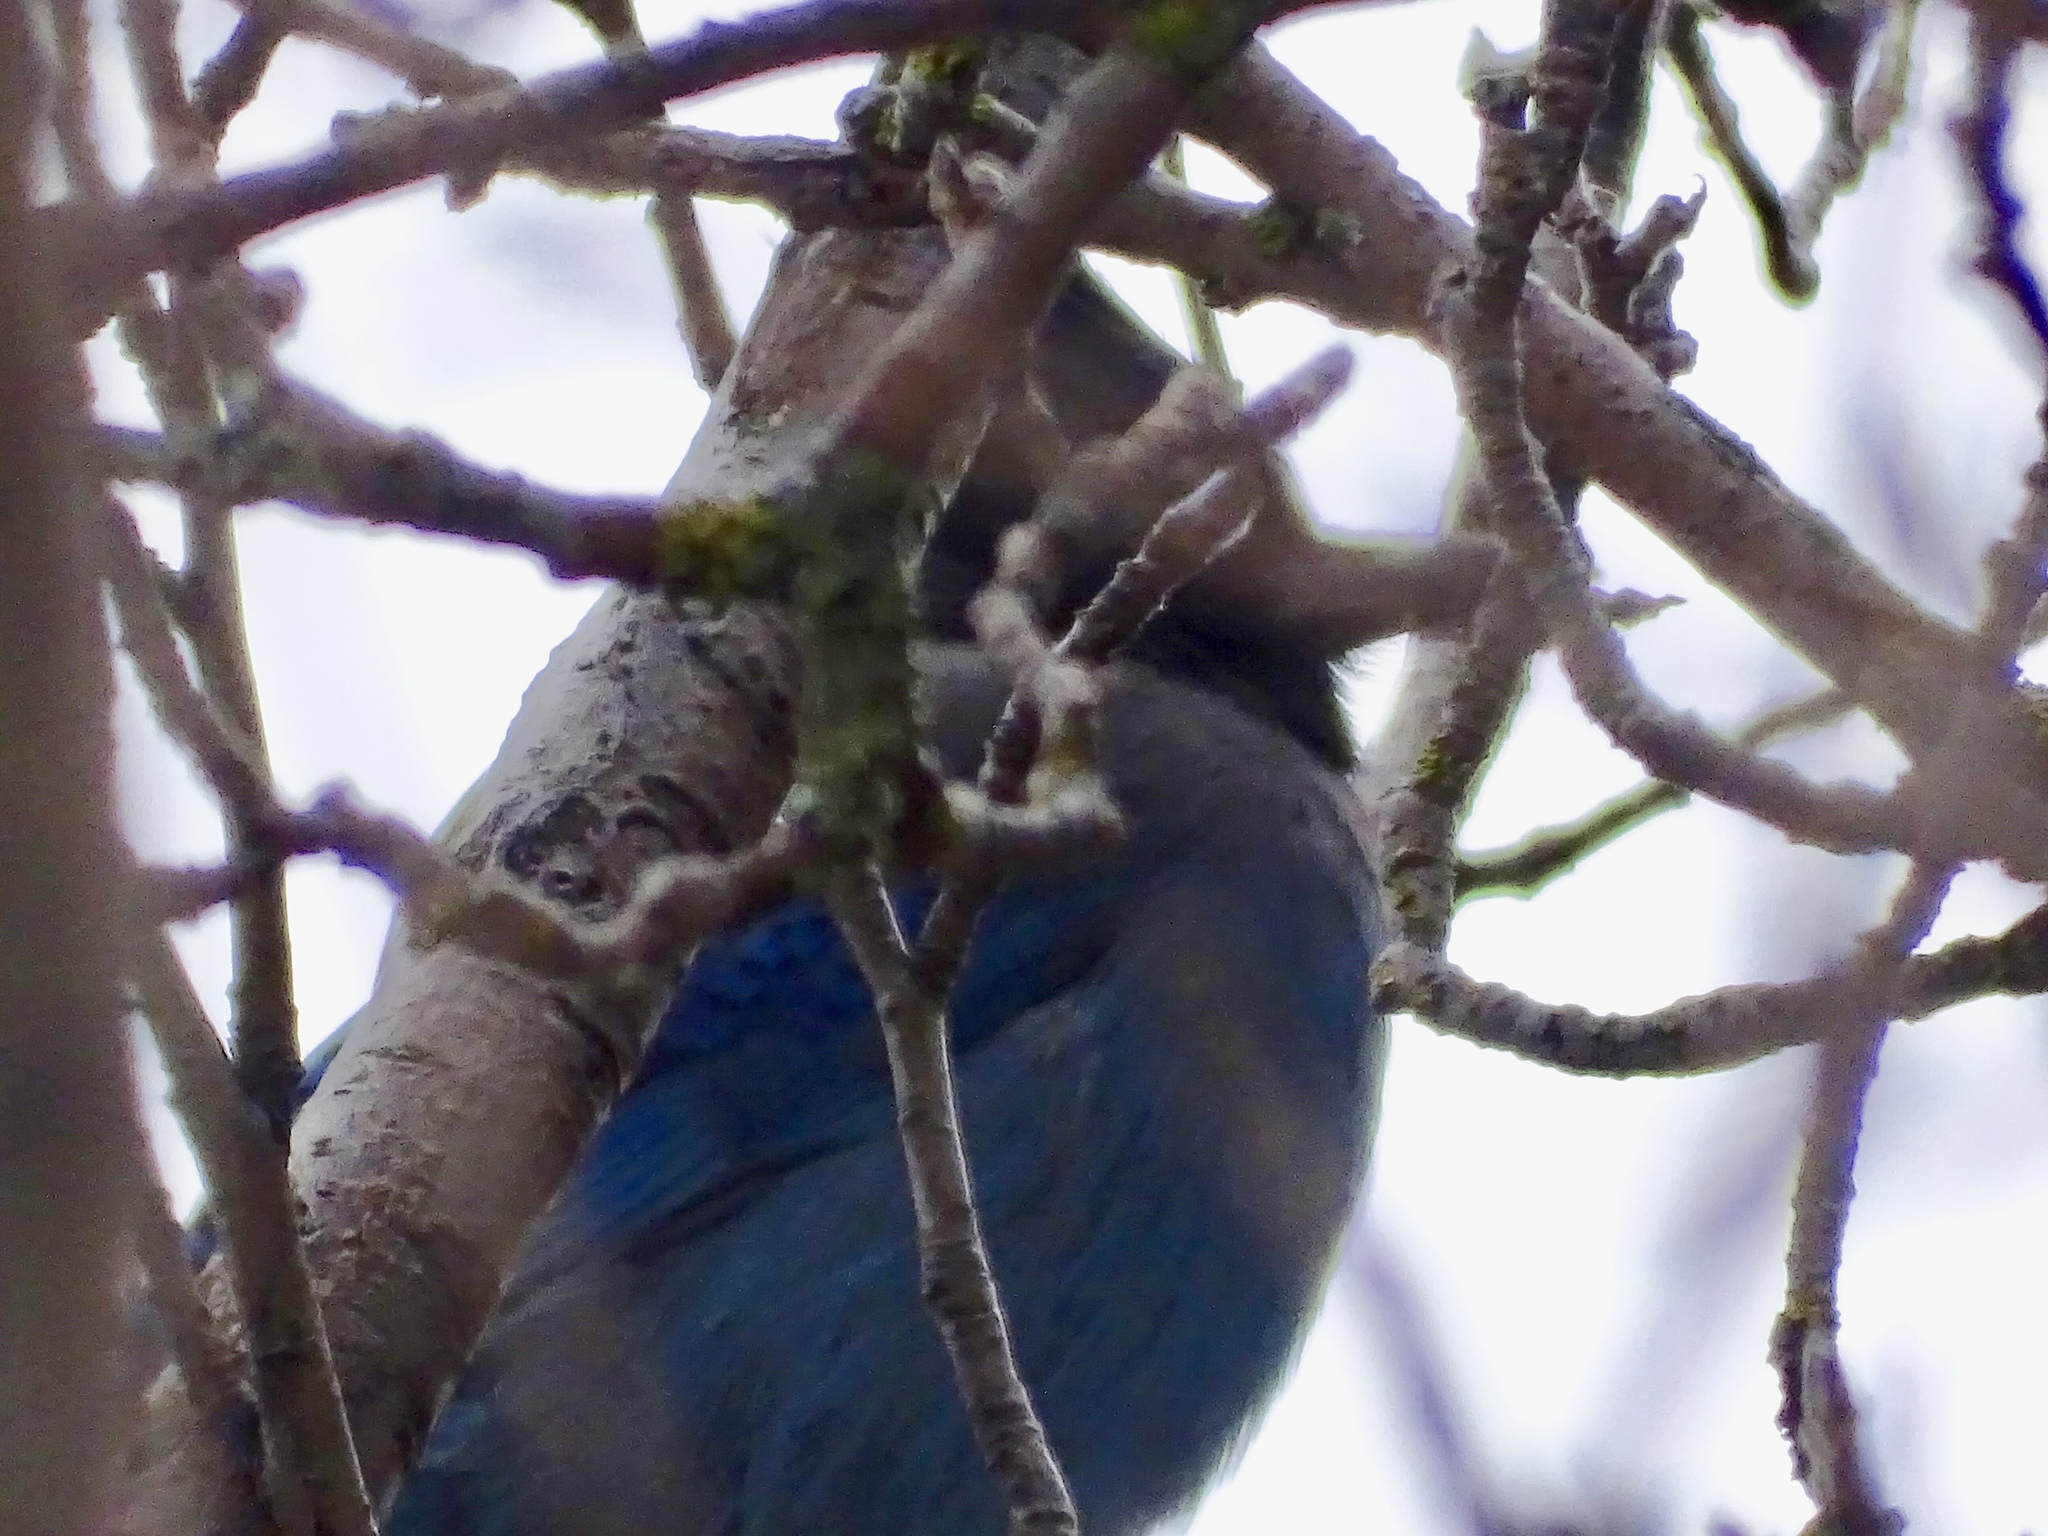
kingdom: Animalia
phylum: Chordata
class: Aves
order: Passeriformes
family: Corvidae
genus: Cyanocitta
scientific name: Cyanocitta stelleri
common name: Steller's jay
